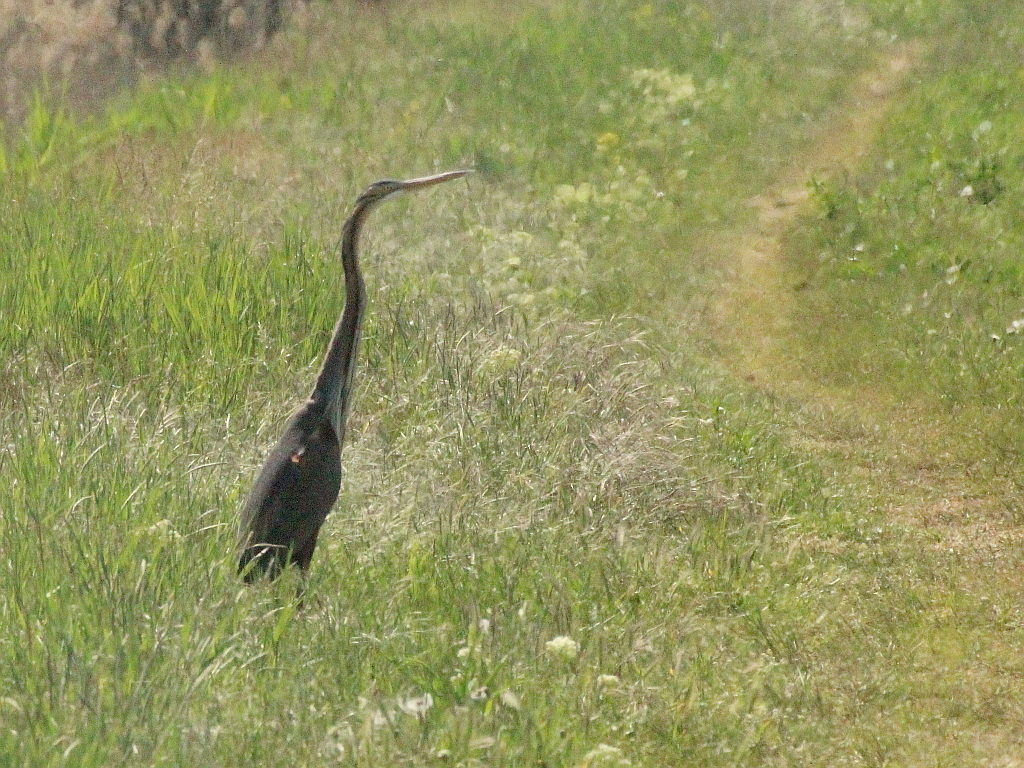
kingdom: Animalia
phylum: Chordata
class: Aves
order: Pelecaniformes
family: Ardeidae
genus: Ardea
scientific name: Ardea purpurea
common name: Purple heron
